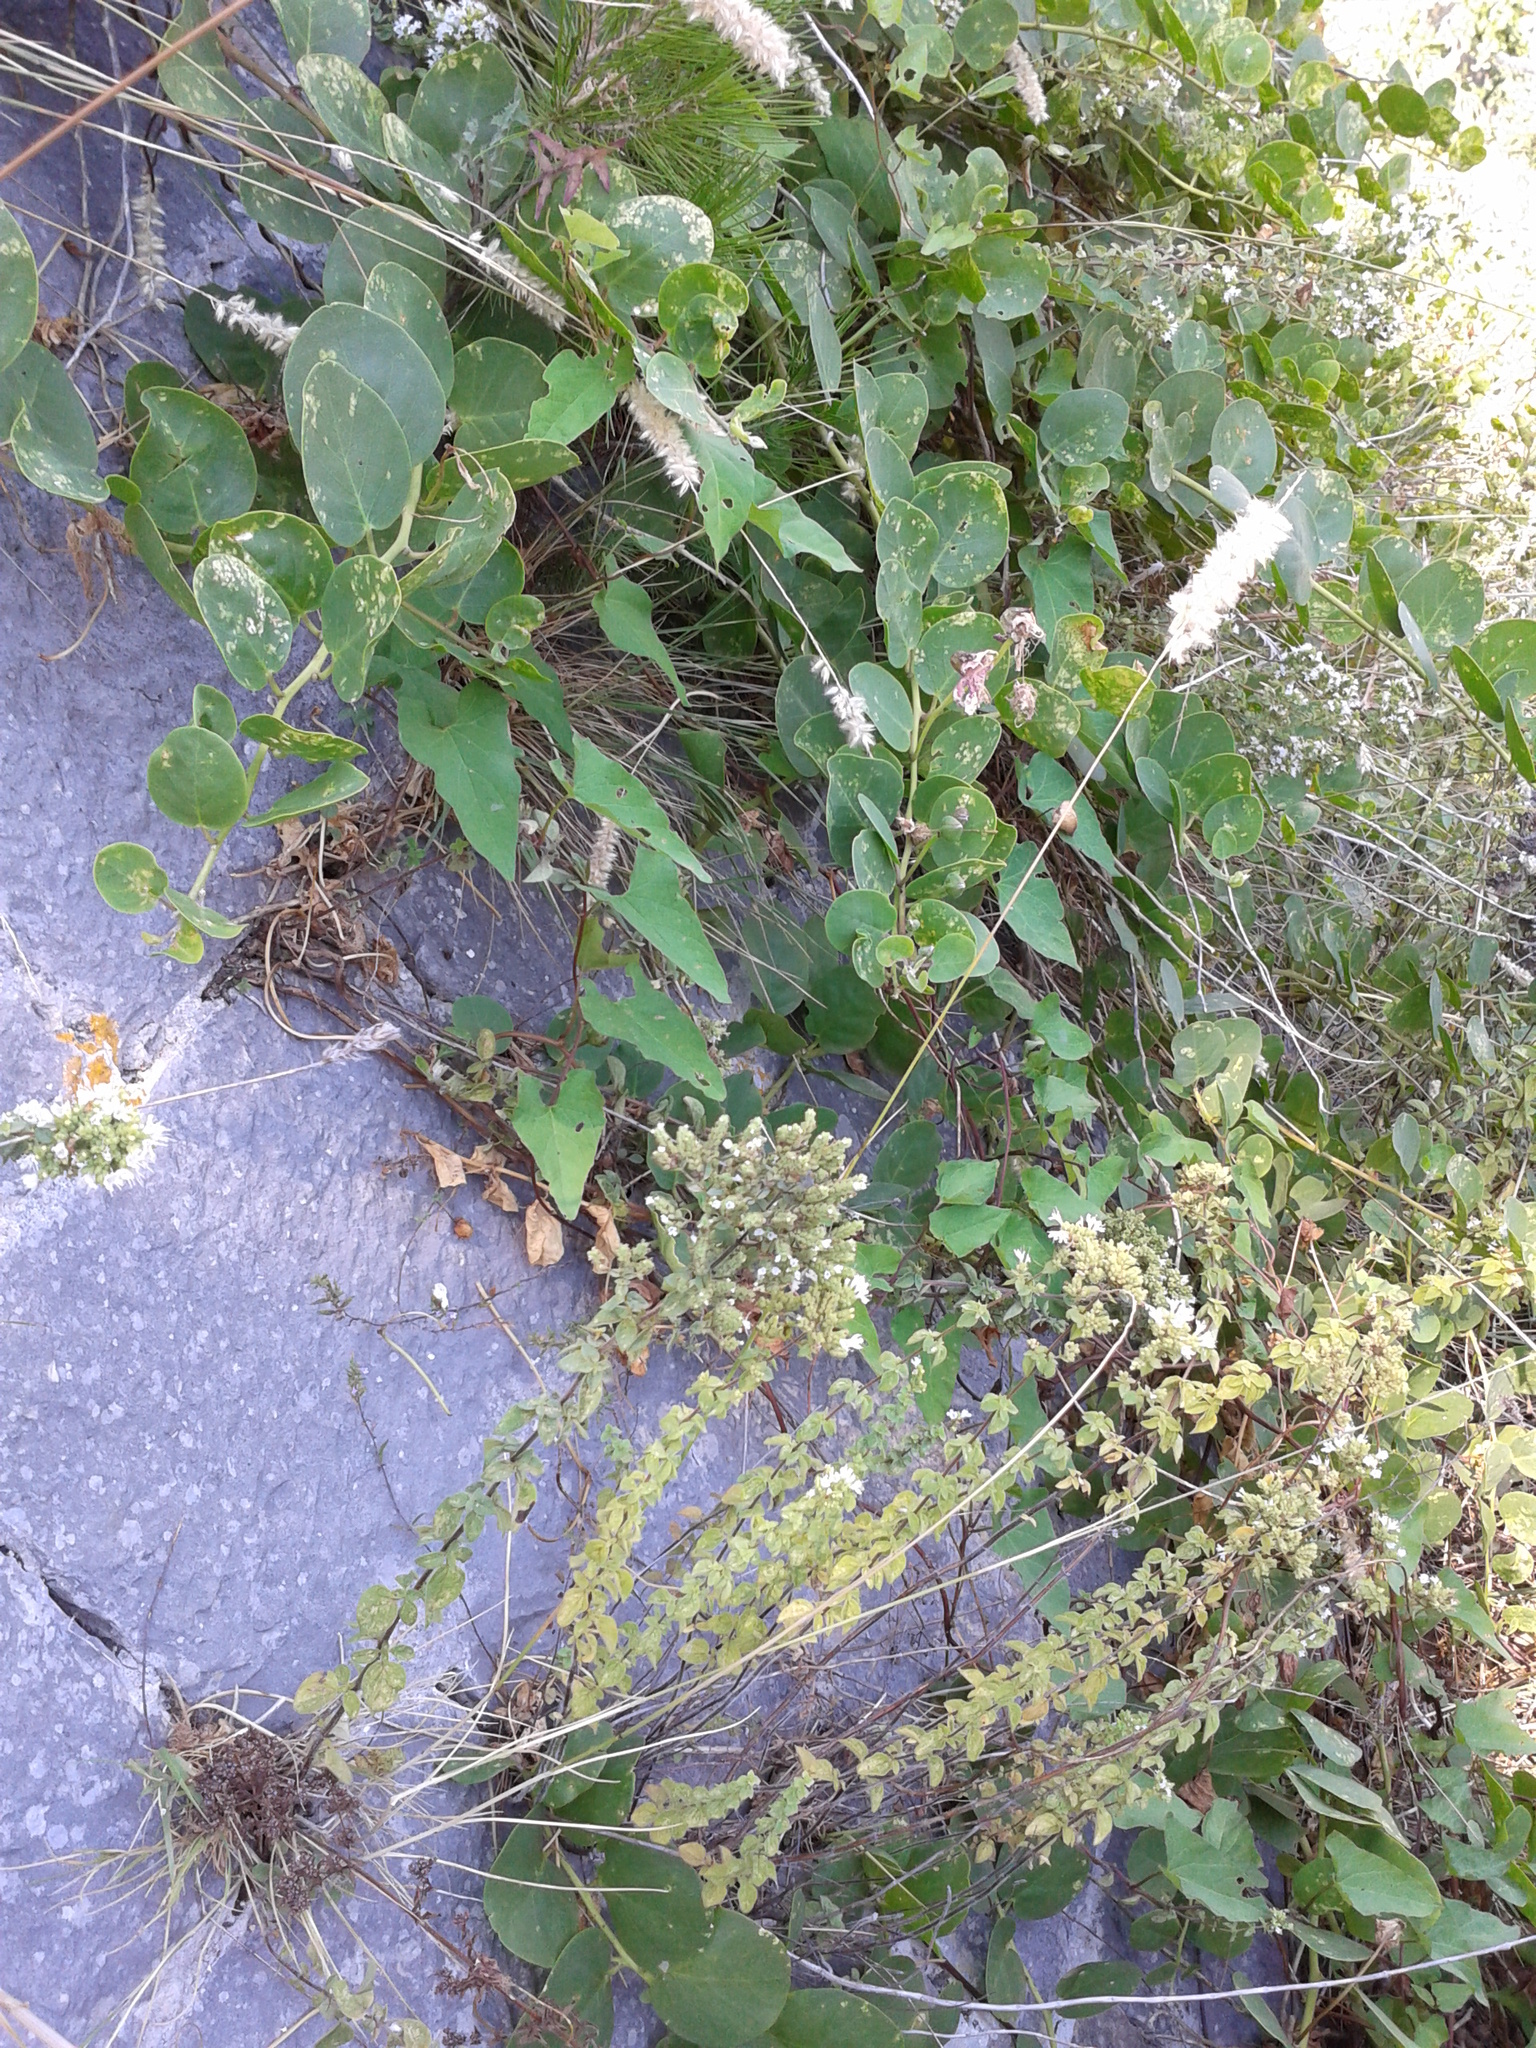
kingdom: Plantae
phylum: Tracheophyta
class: Magnoliopsida
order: Lamiales
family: Lamiaceae
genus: Origanum
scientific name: Origanum vulgare
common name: Wild marjoram
